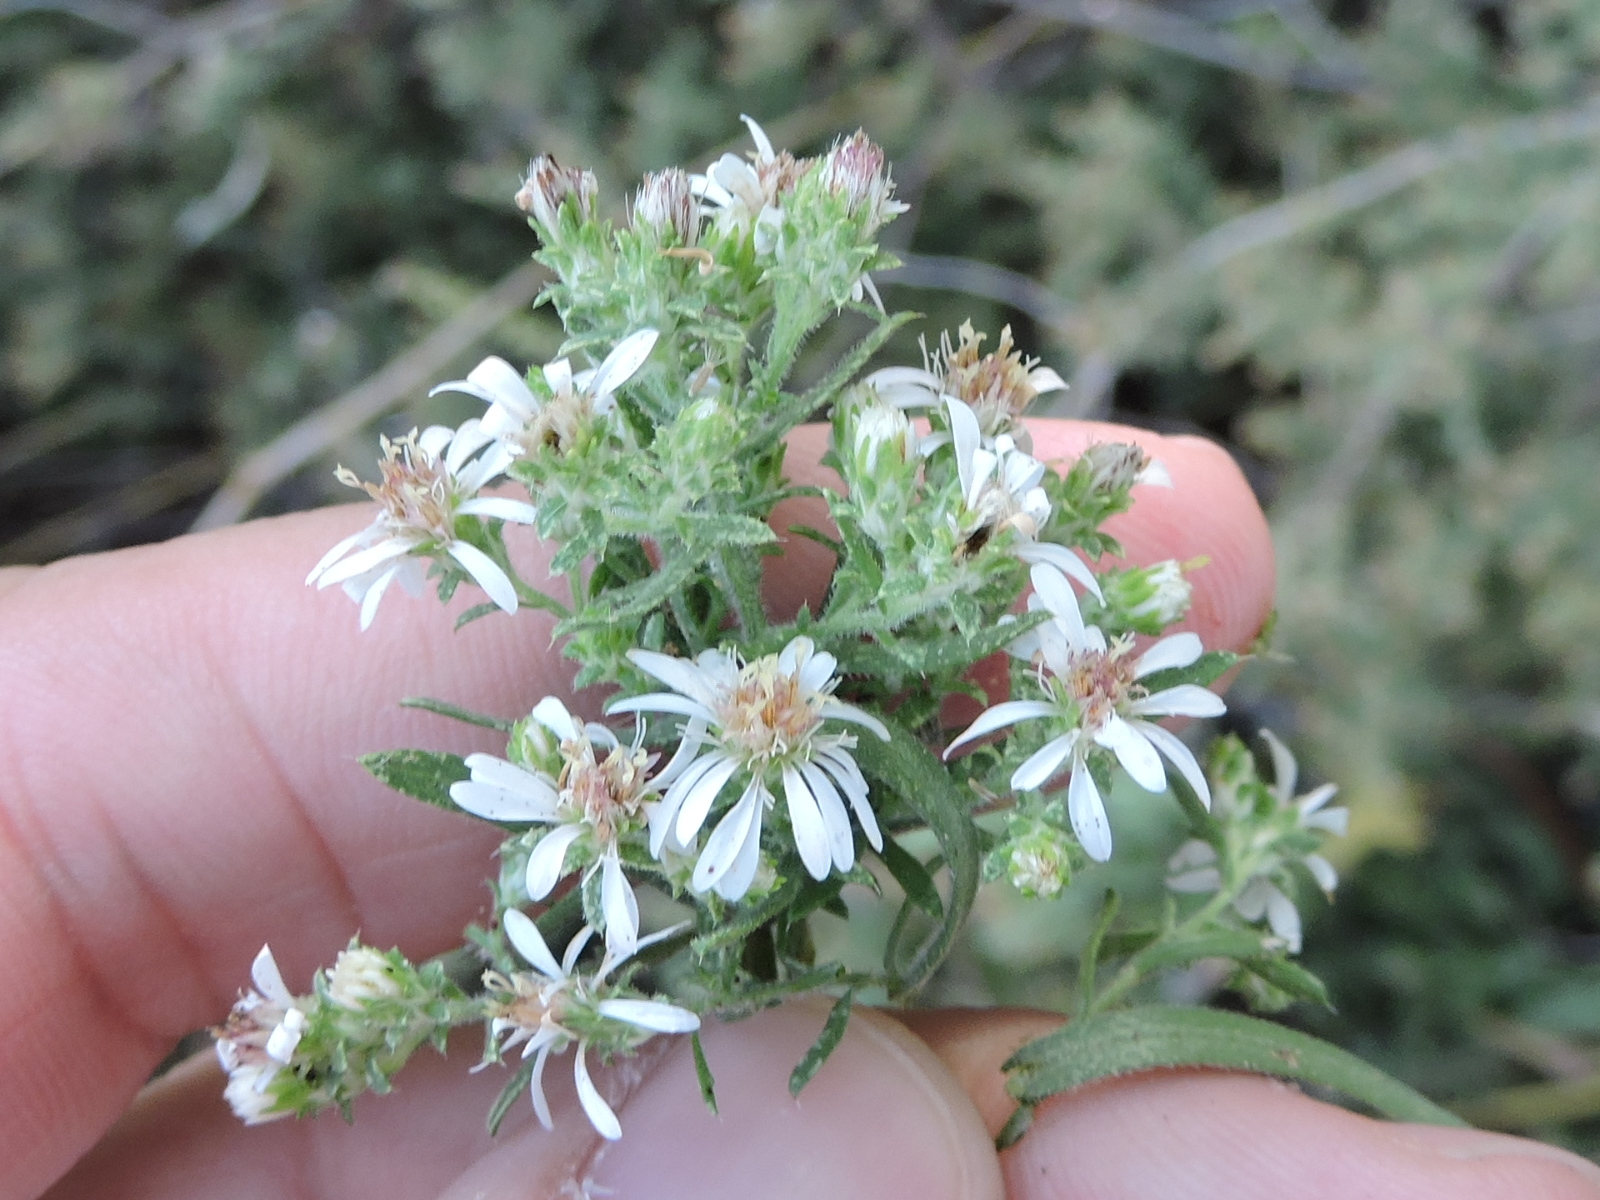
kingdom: Plantae
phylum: Tracheophyta
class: Magnoliopsida
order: Asterales
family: Asteraceae
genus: Symphyotrichum
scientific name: Symphyotrichum ericoides
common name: Heath aster
